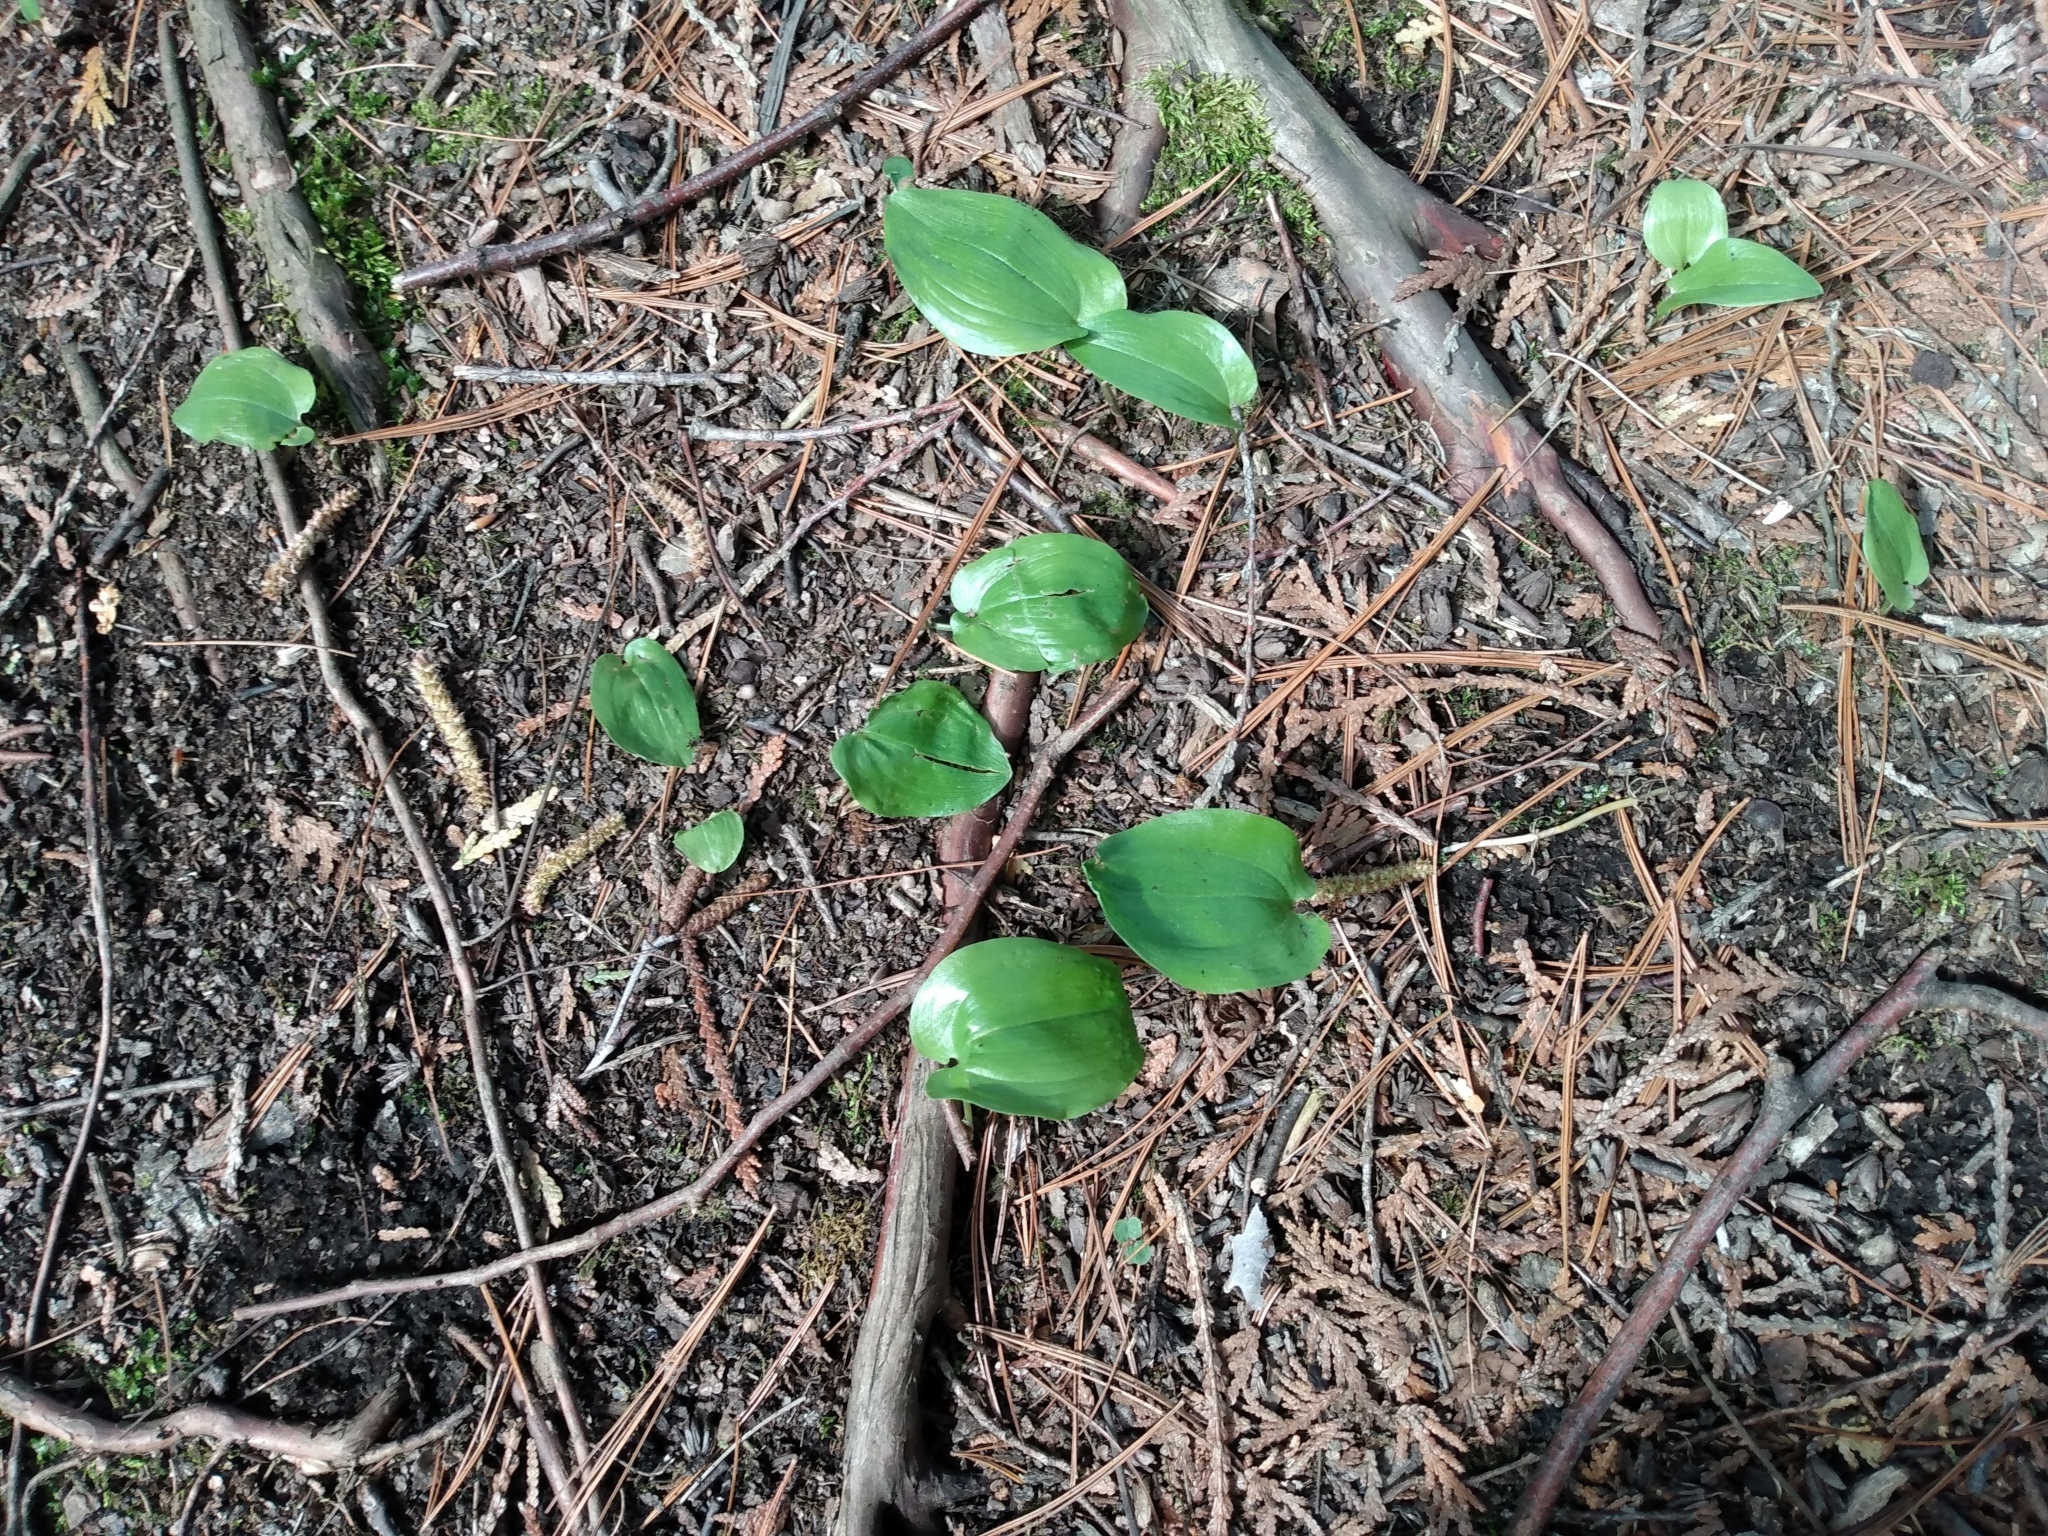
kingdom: Plantae
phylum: Tracheophyta
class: Liliopsida
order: Asparagales
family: Asparagaceae
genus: Maianthemum
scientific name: Maianthemum canadense
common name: False lily-of-the-valley
